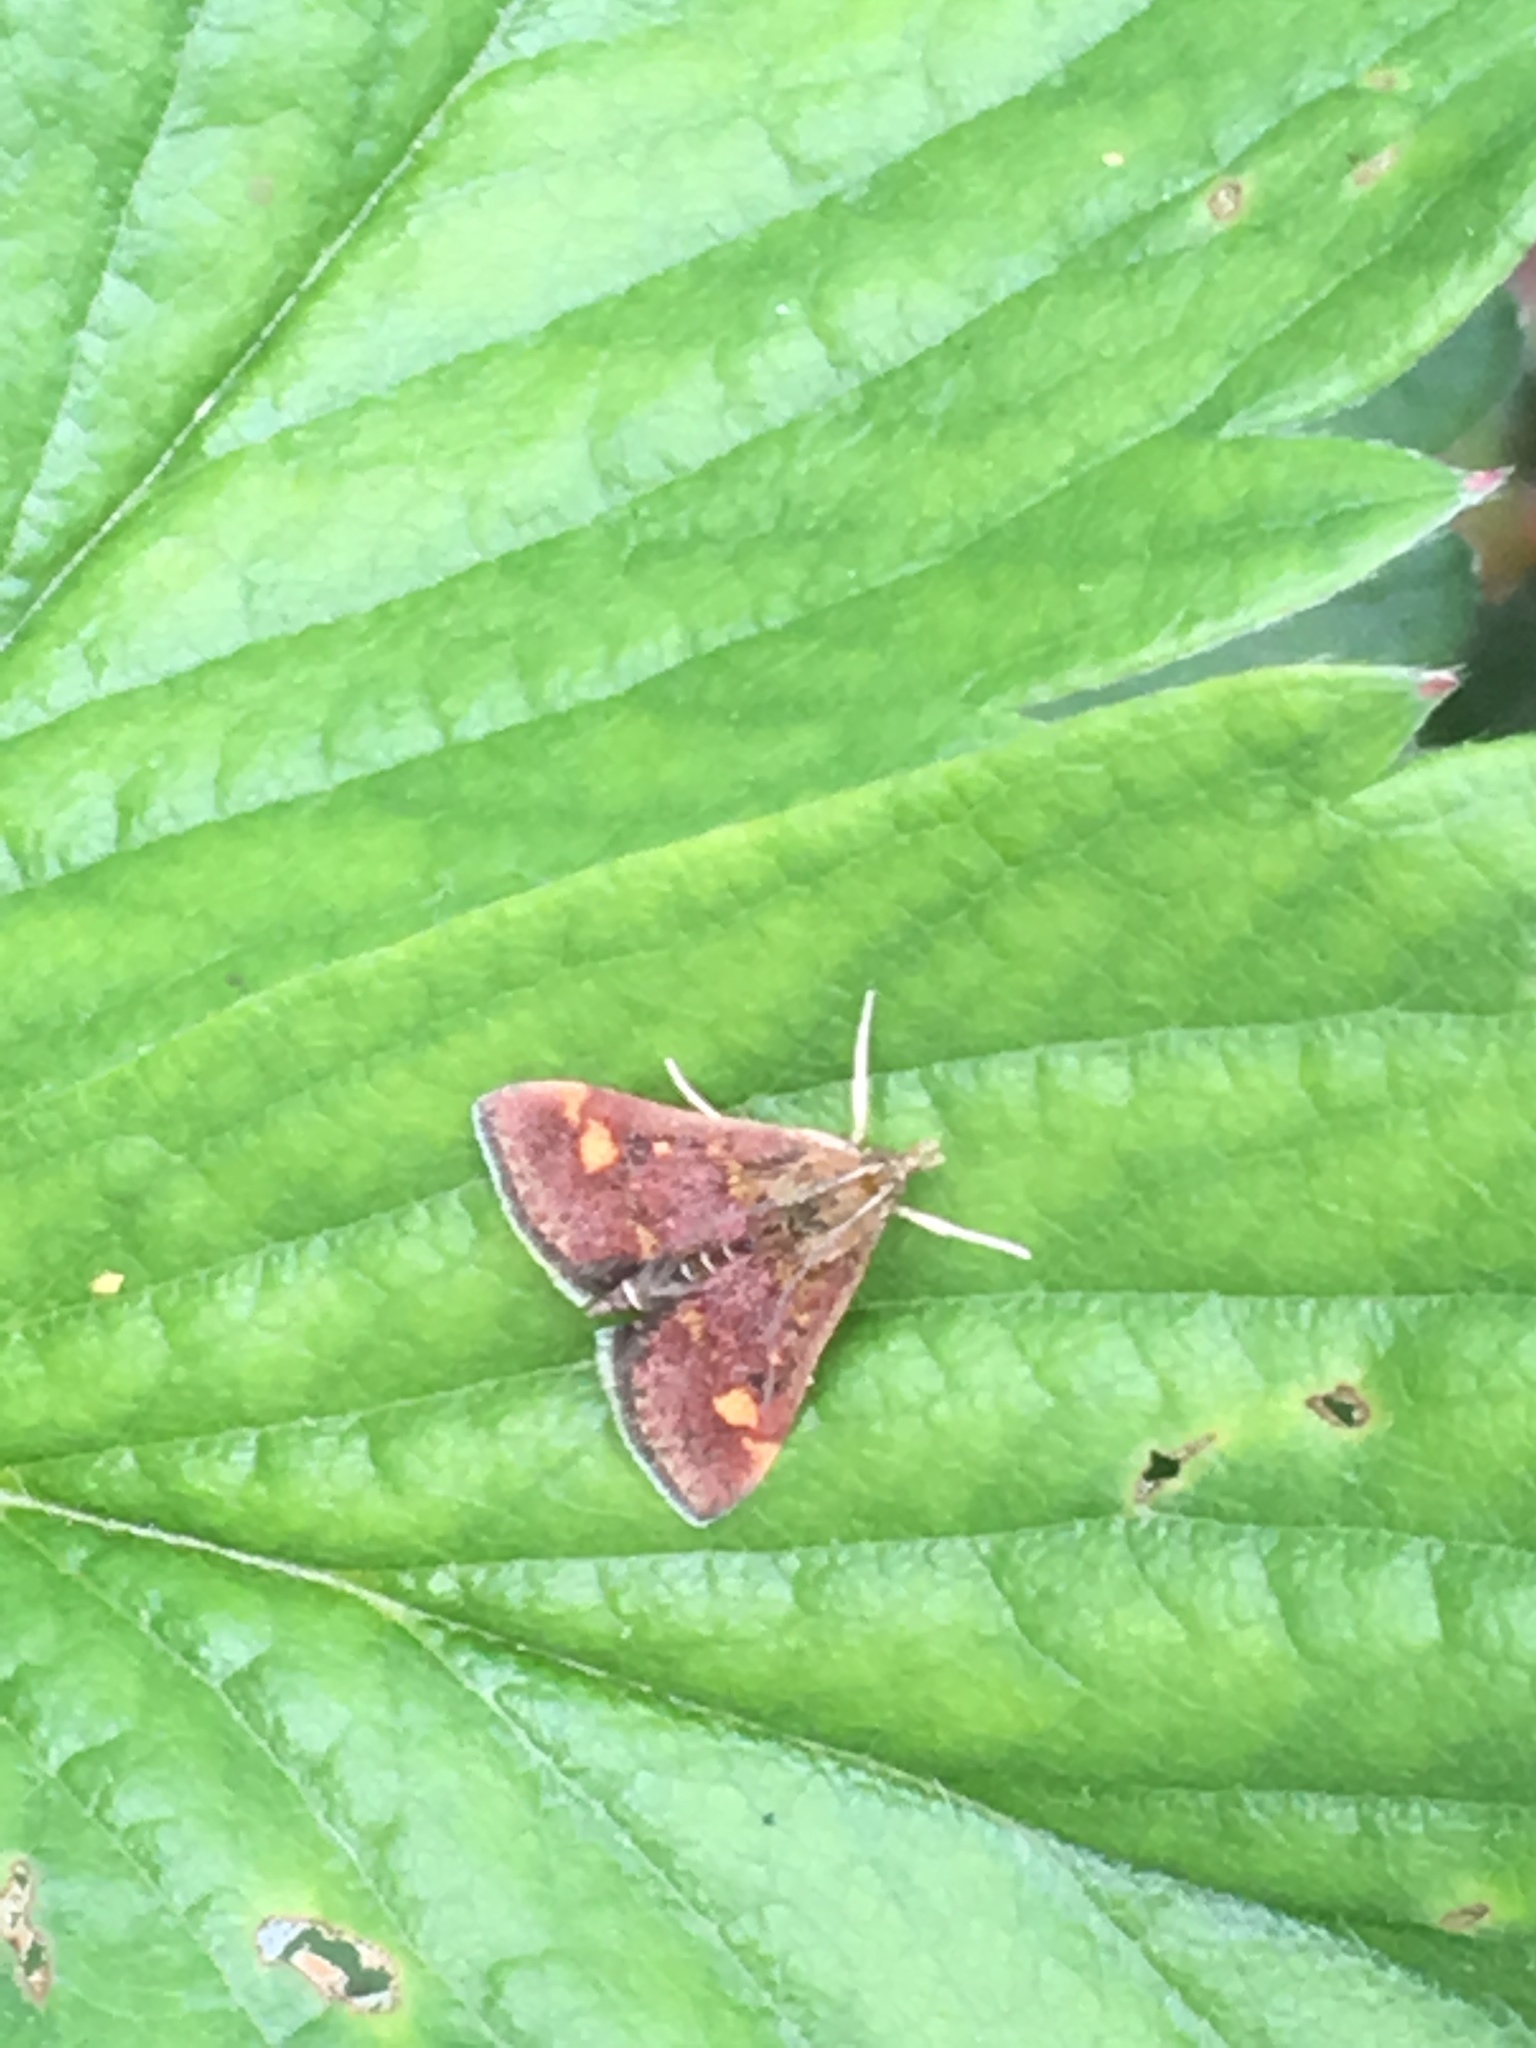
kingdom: Animalia
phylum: Arthropoda
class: Insecta
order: Lepidoptera
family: Crambidae
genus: Pyrausta
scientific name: Pyrausta aurata
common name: Small purple & gold
